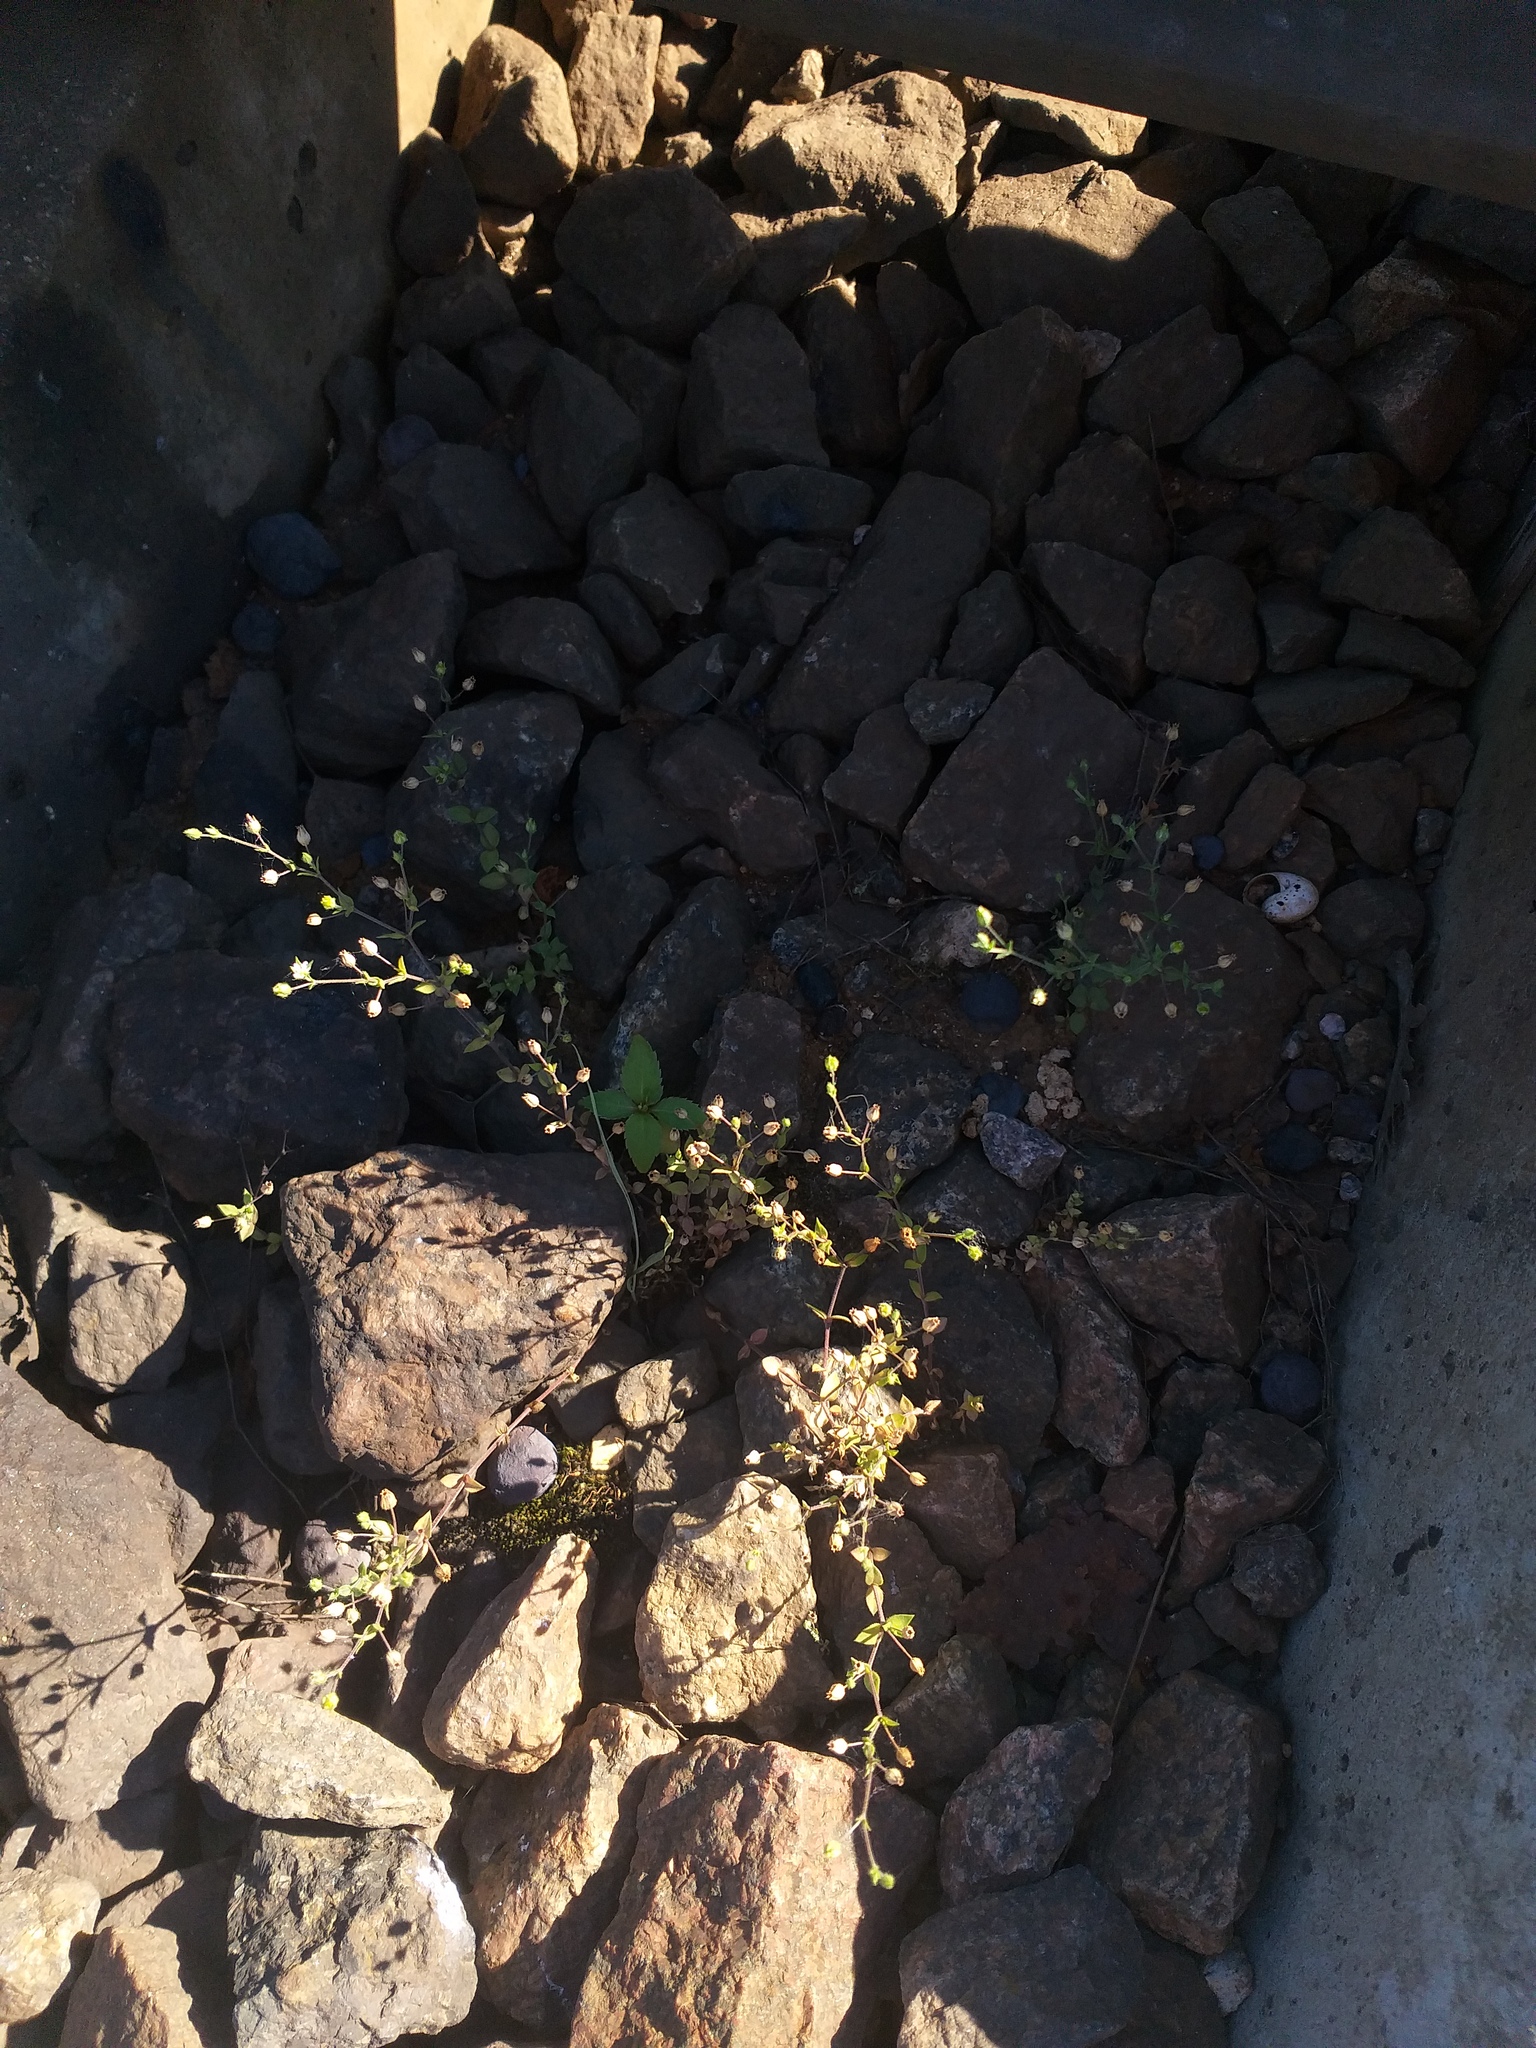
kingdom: Plantae
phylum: Tracheophyta
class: Magnoliopsida
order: Caryophyllales
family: Caryophyllaceae
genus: Arenaria
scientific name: Arenaria serpyllifolia
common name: Thyme-leaved sandwort
